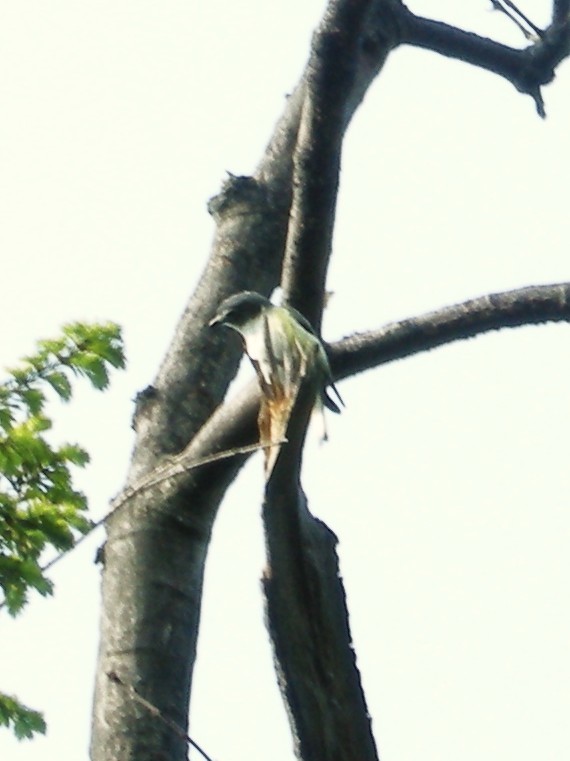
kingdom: Animalia
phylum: Chordata
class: Aves
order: Passeriformes
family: Vireonidae
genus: Vireo
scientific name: Vireo solitarius
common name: Blue-headed vireo
